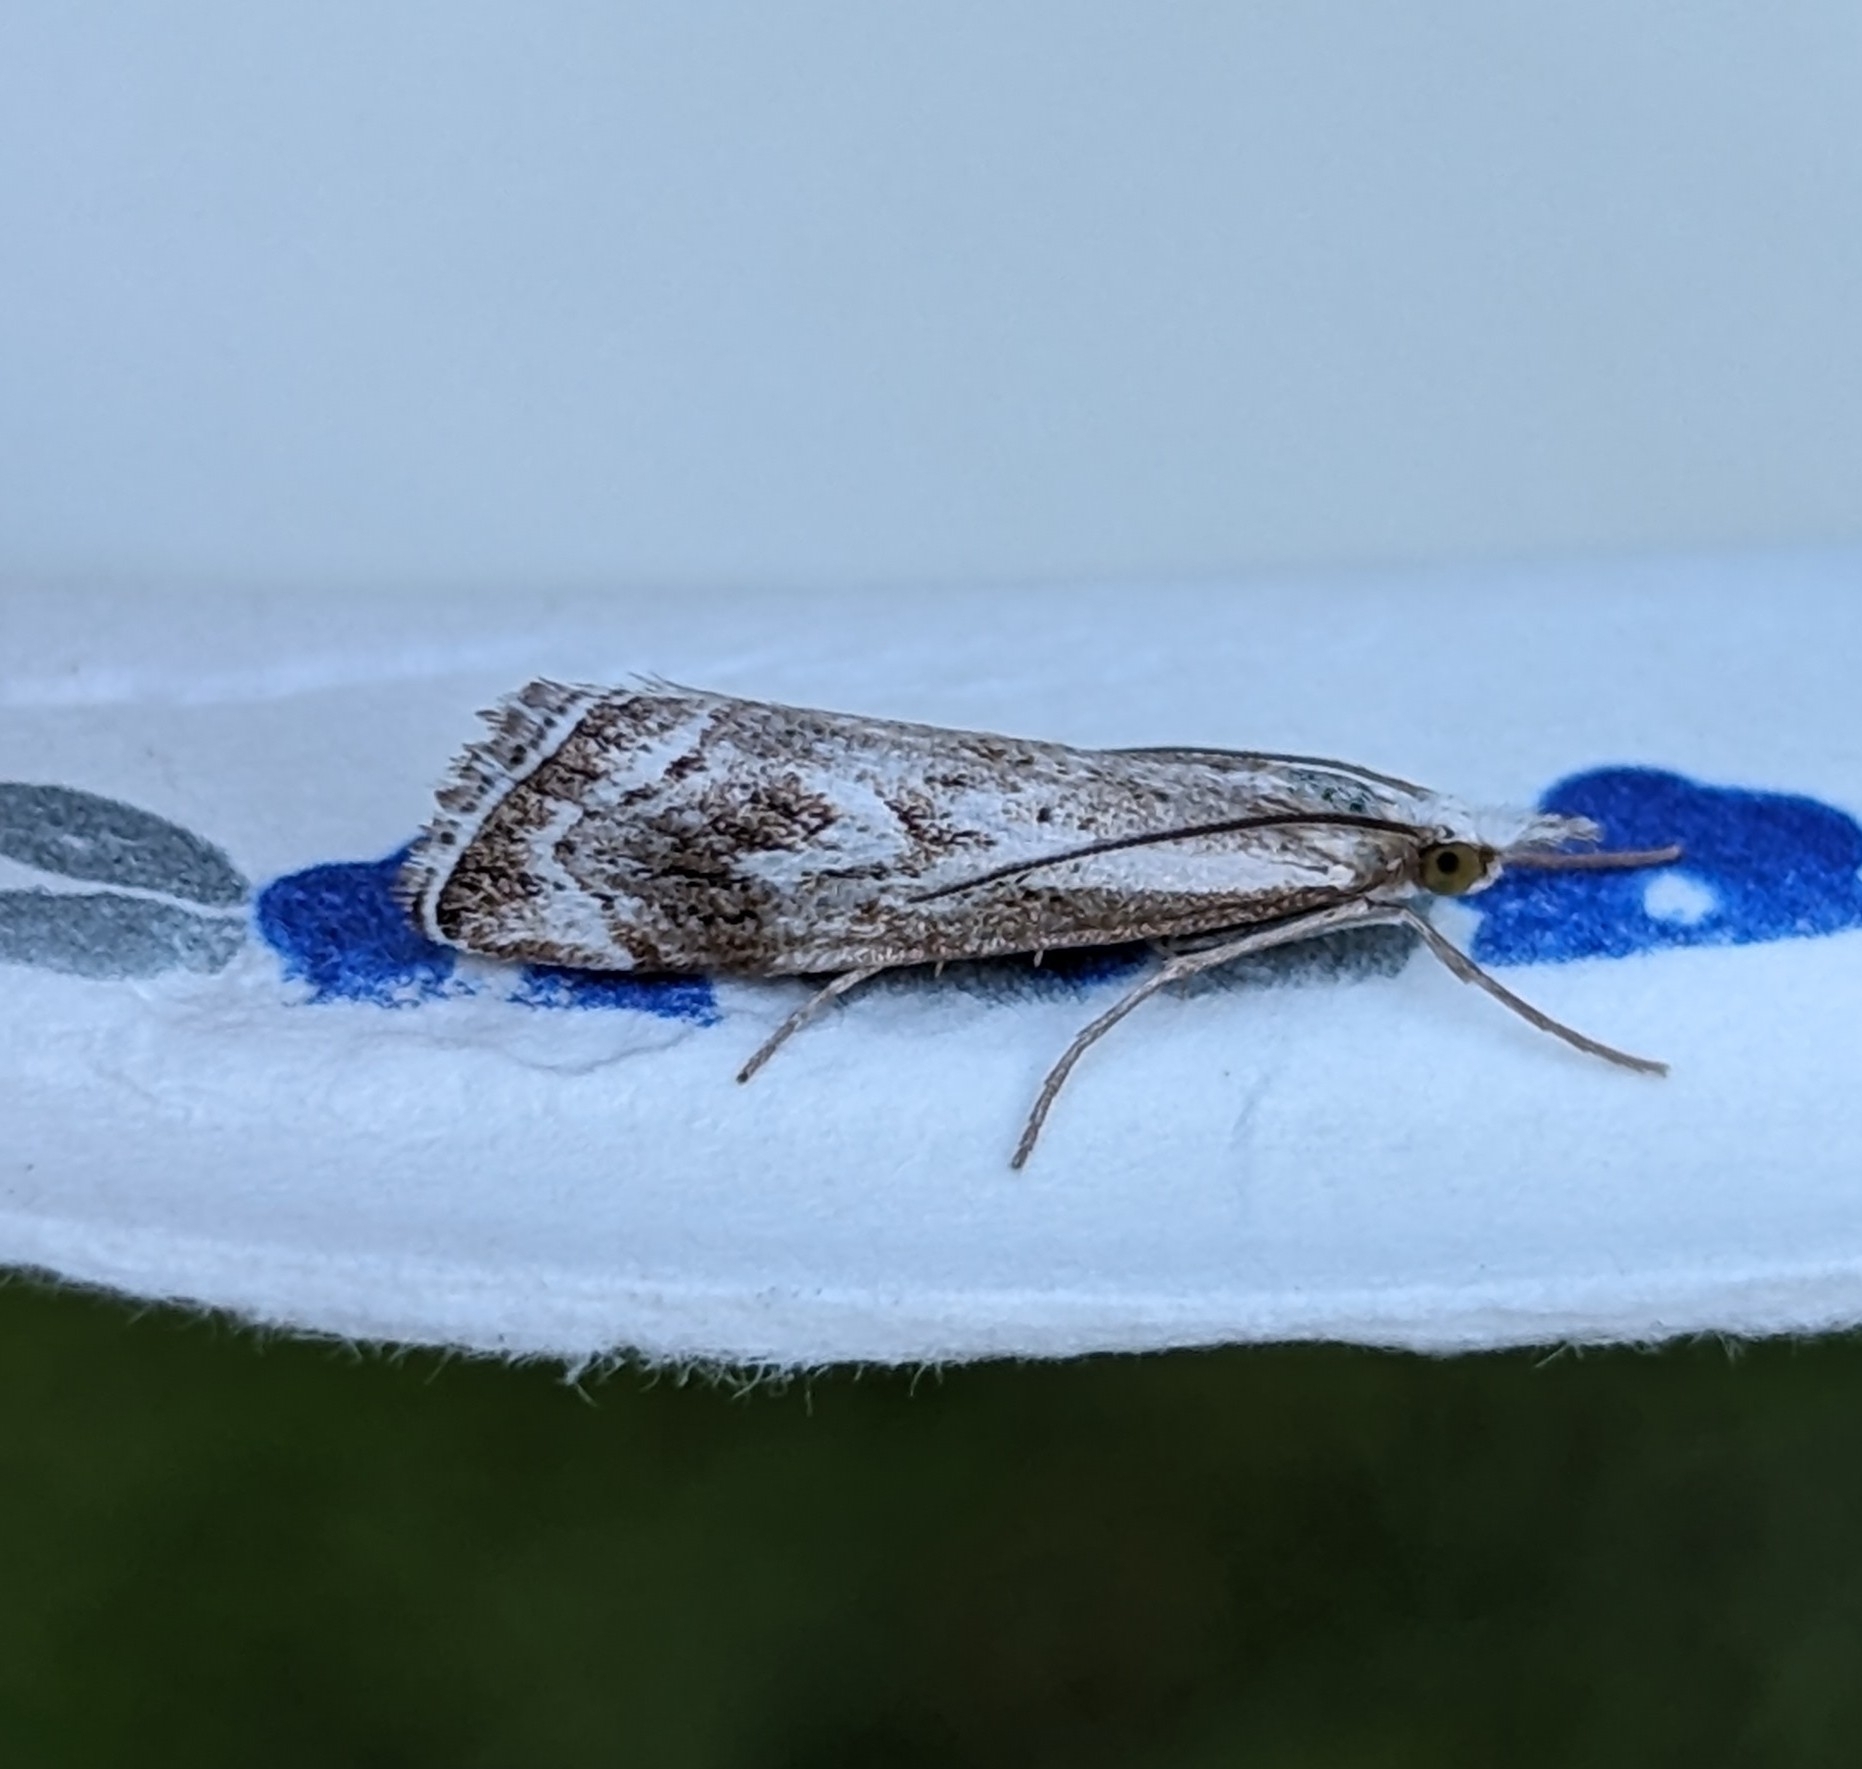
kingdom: Animalia
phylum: Arthropoda
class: Insecta
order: Lepidoptera
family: Crambidae
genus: Catoptria
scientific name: Catoptria oregonicus
